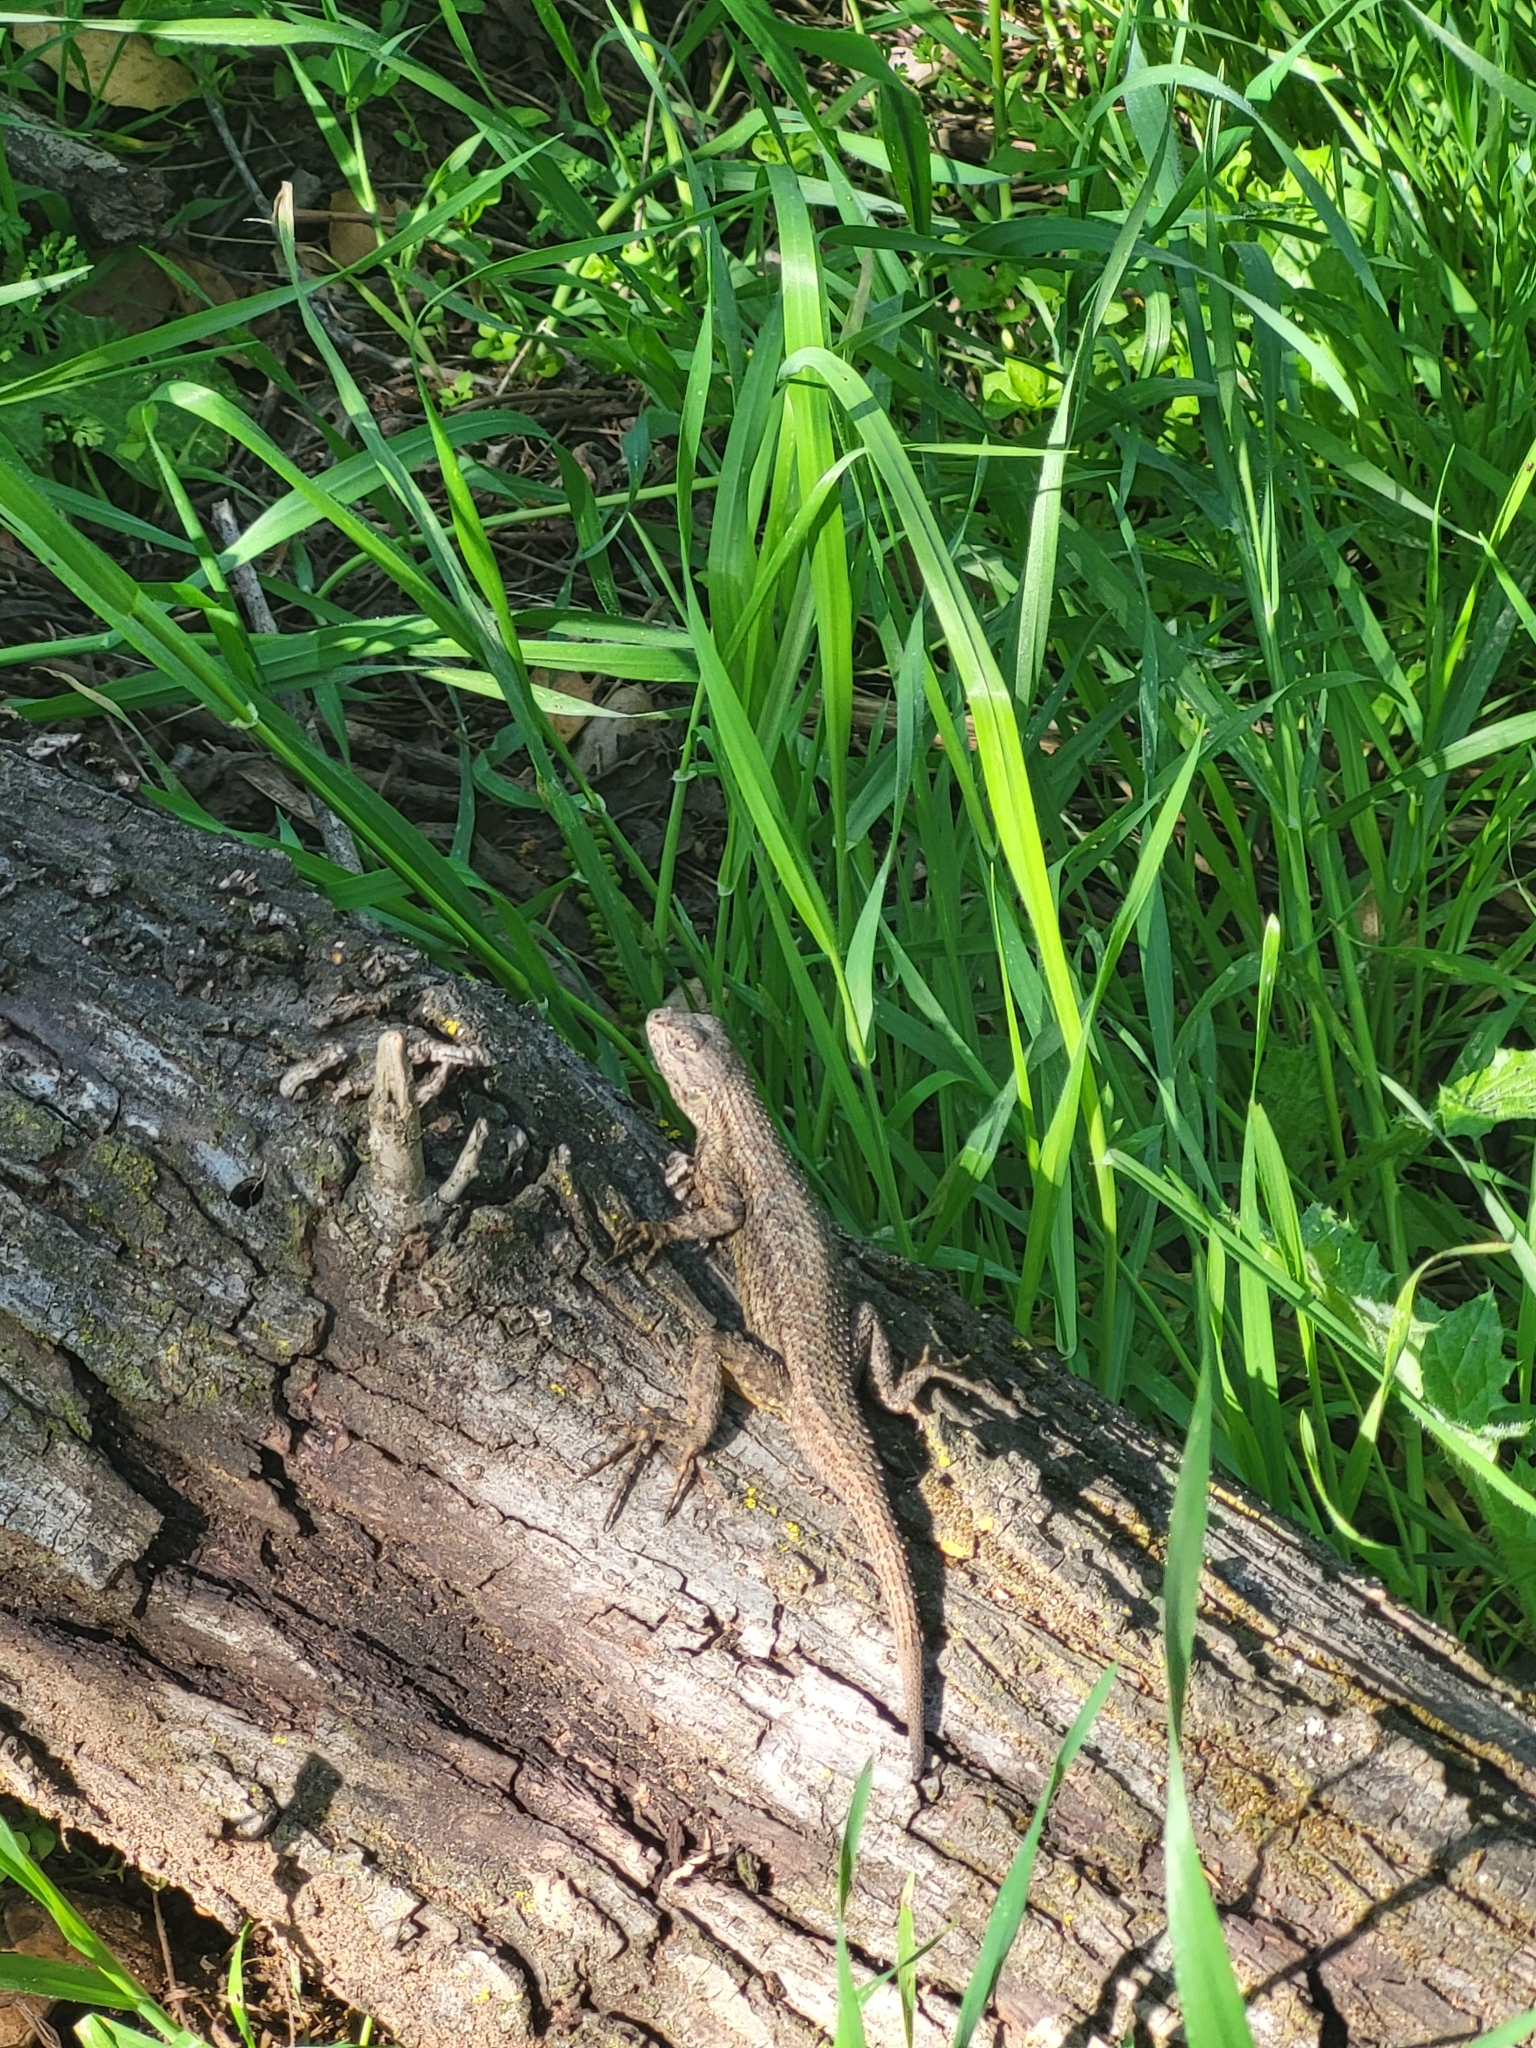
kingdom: Animalia
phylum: Chordata
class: Squamata
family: Phrynosomatidae
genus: Sceloporus
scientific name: Sceloporus occidentalis
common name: Western fence lizard
